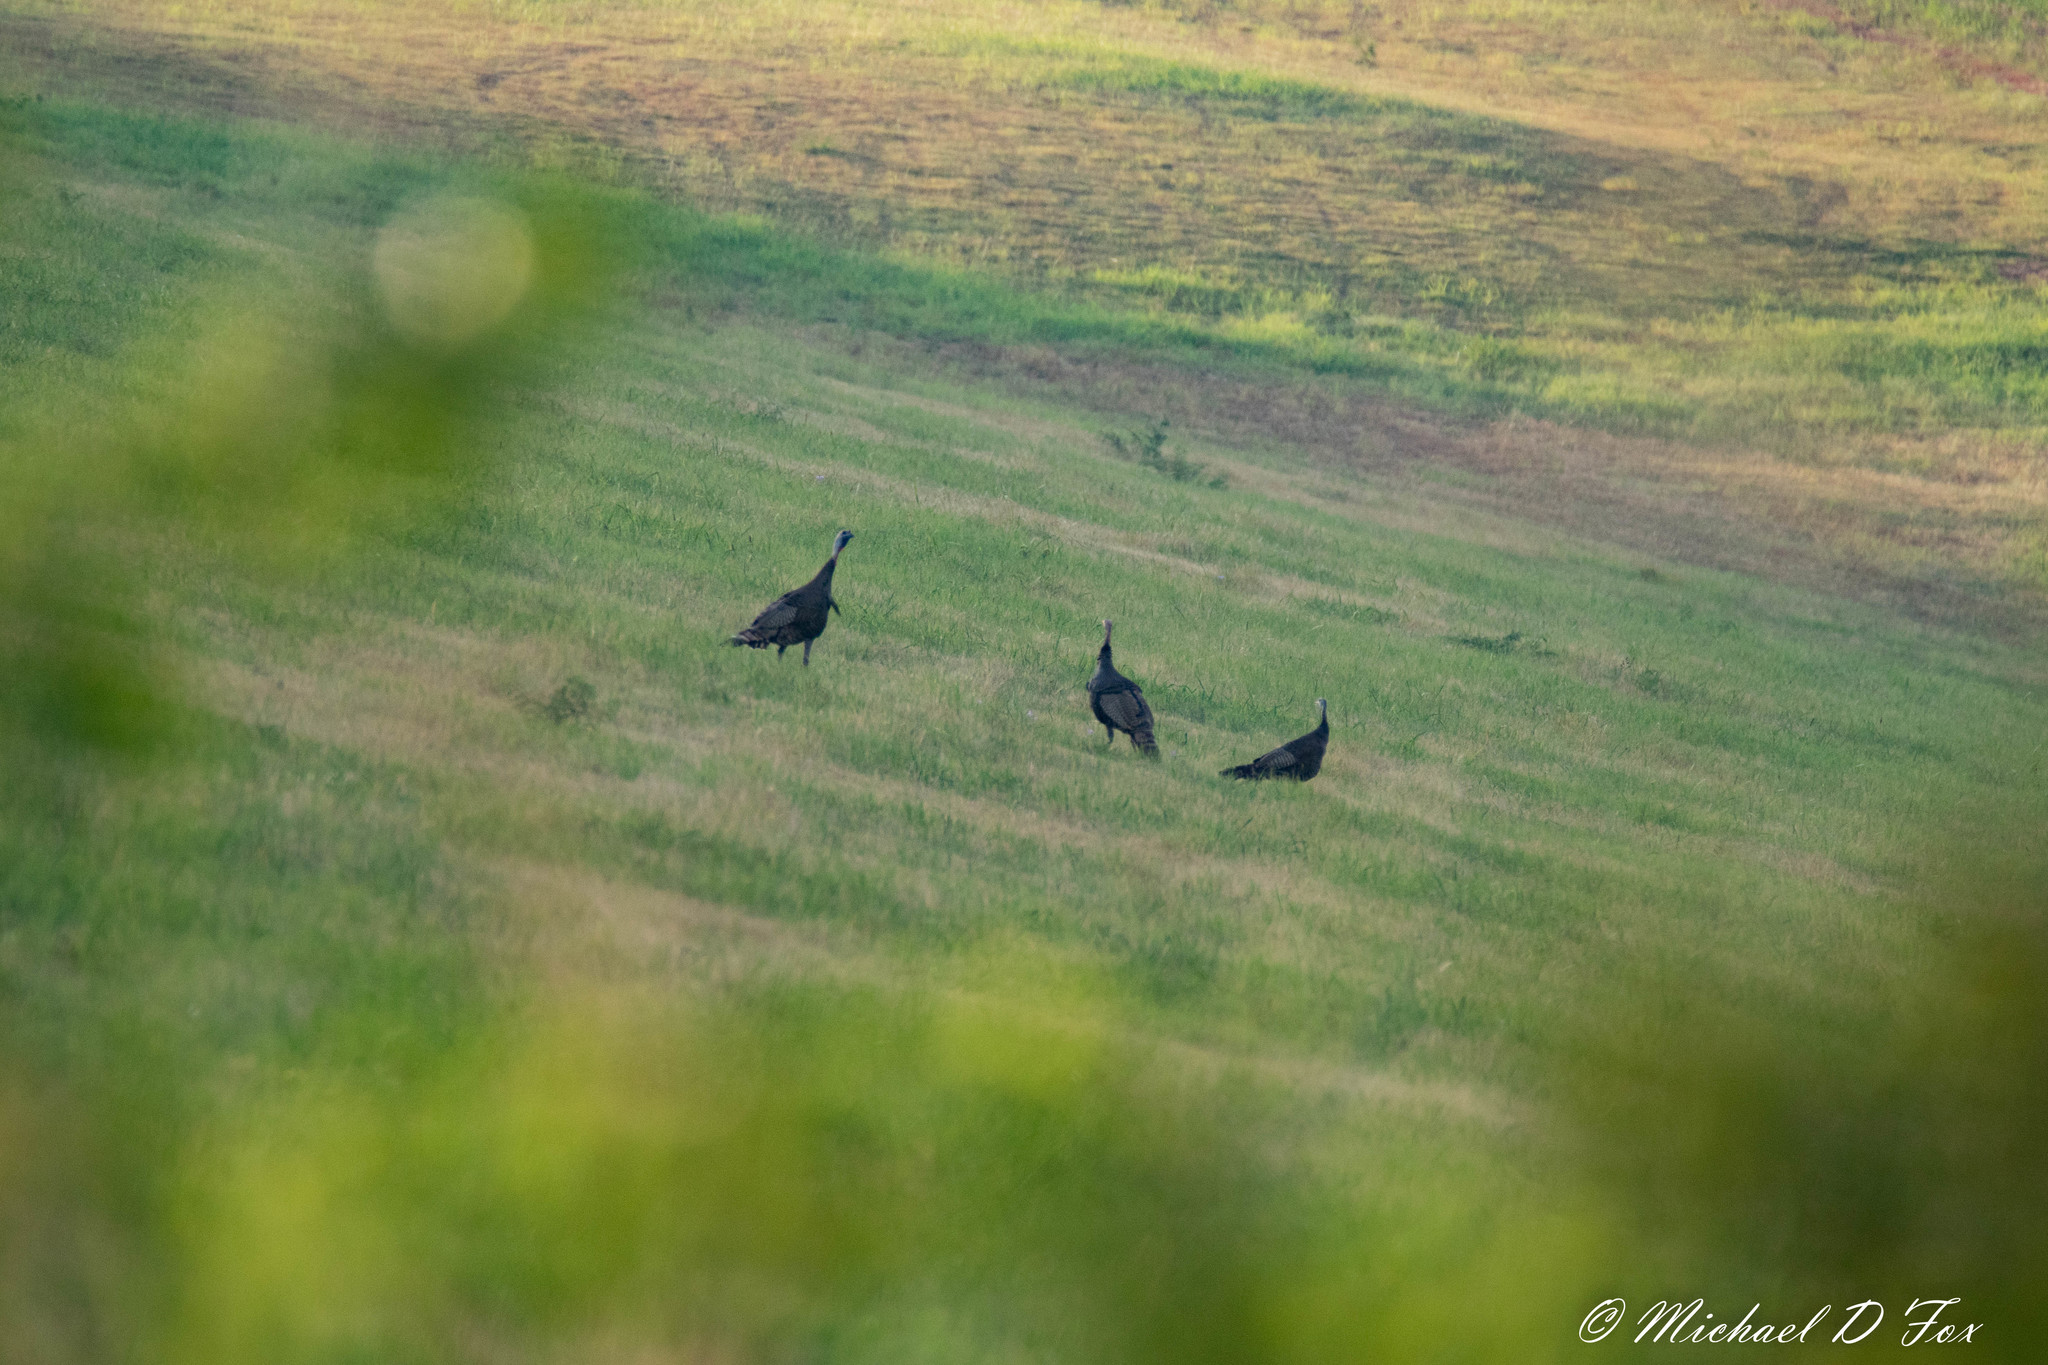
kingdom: Animalia
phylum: Chordata
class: Aves
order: Galliformes
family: Phasianidae
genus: Meleagris
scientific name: Meleagris gallopavo
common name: Wild turkey
